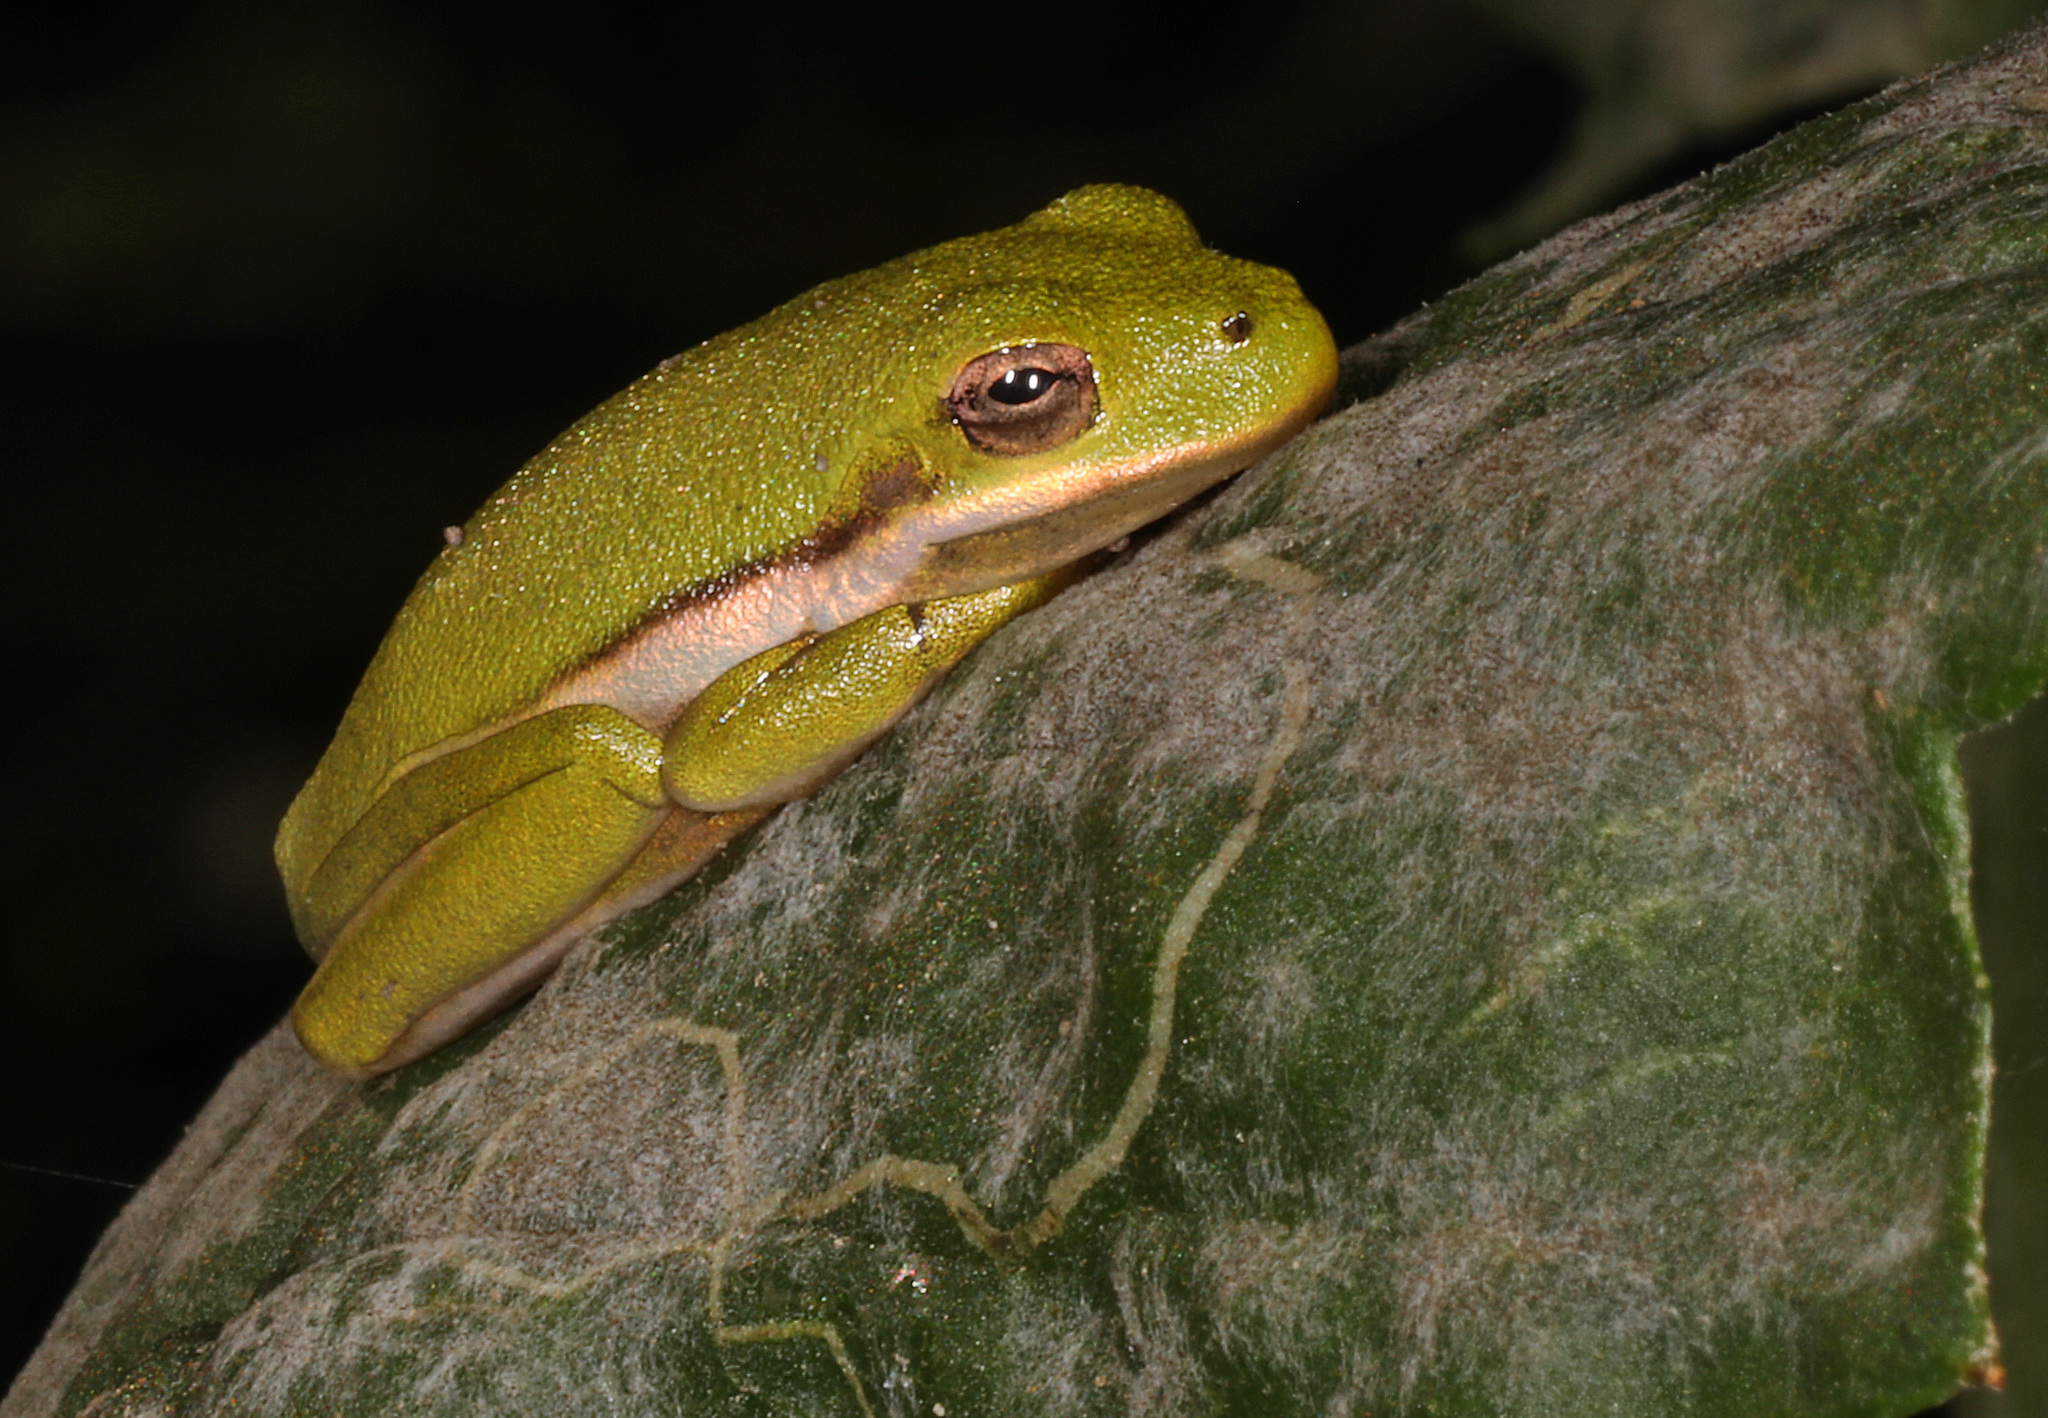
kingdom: Animalia
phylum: Chordata
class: Amphibia
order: Anura
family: Hylidae
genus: Dryophytes
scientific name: Dryophytes cinereus
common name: Green treefrog
